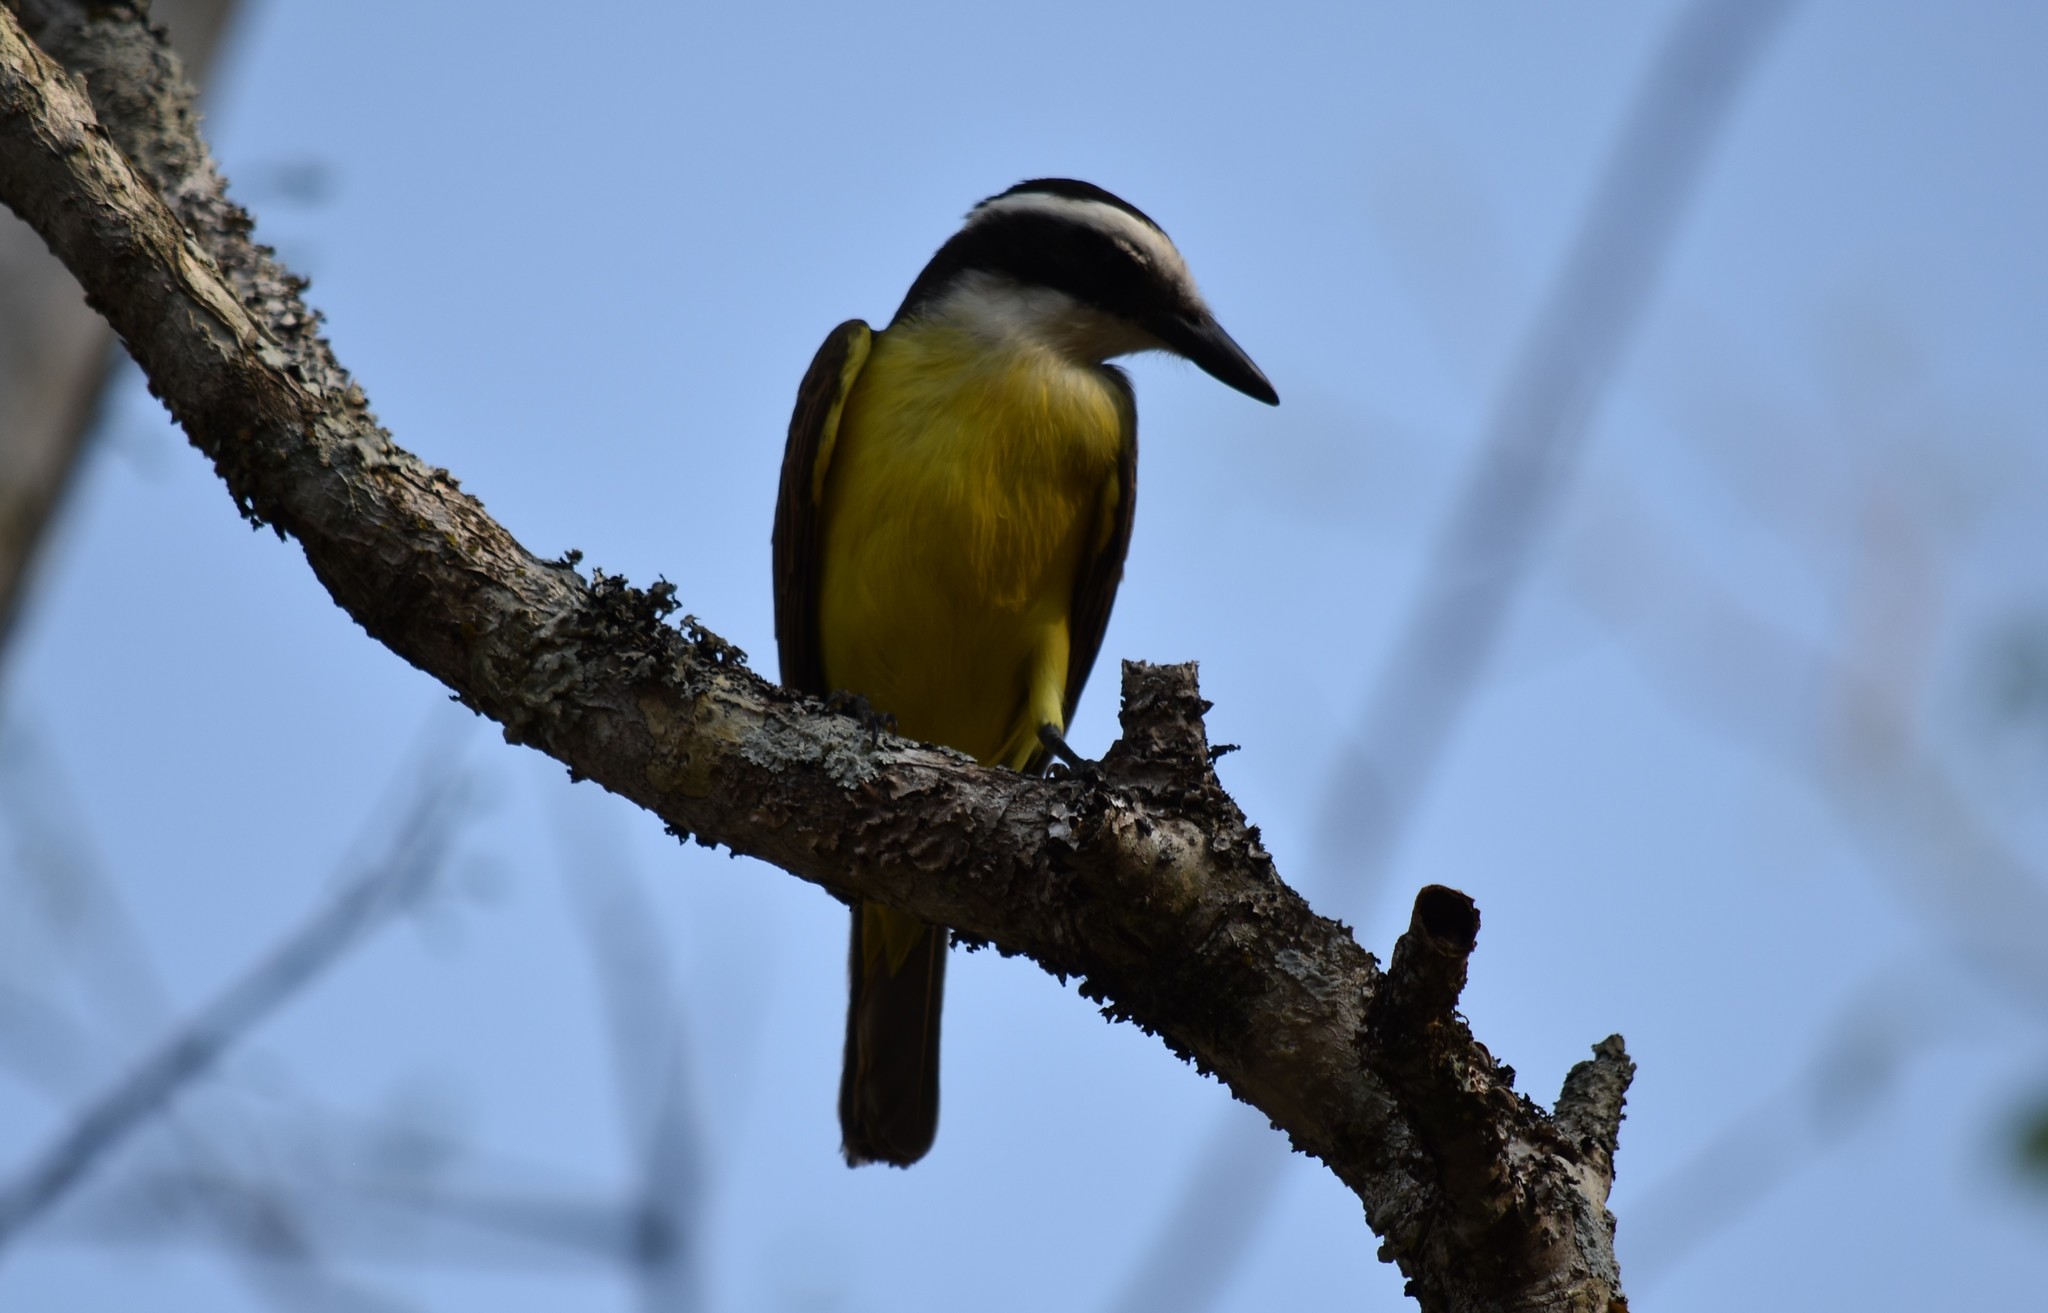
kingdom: Animalia
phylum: Chordata
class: Aves
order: Passeriformes
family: Tyrannidae
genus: Pitangus
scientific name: Pitangus sulphuratus
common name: Great kiskadee
